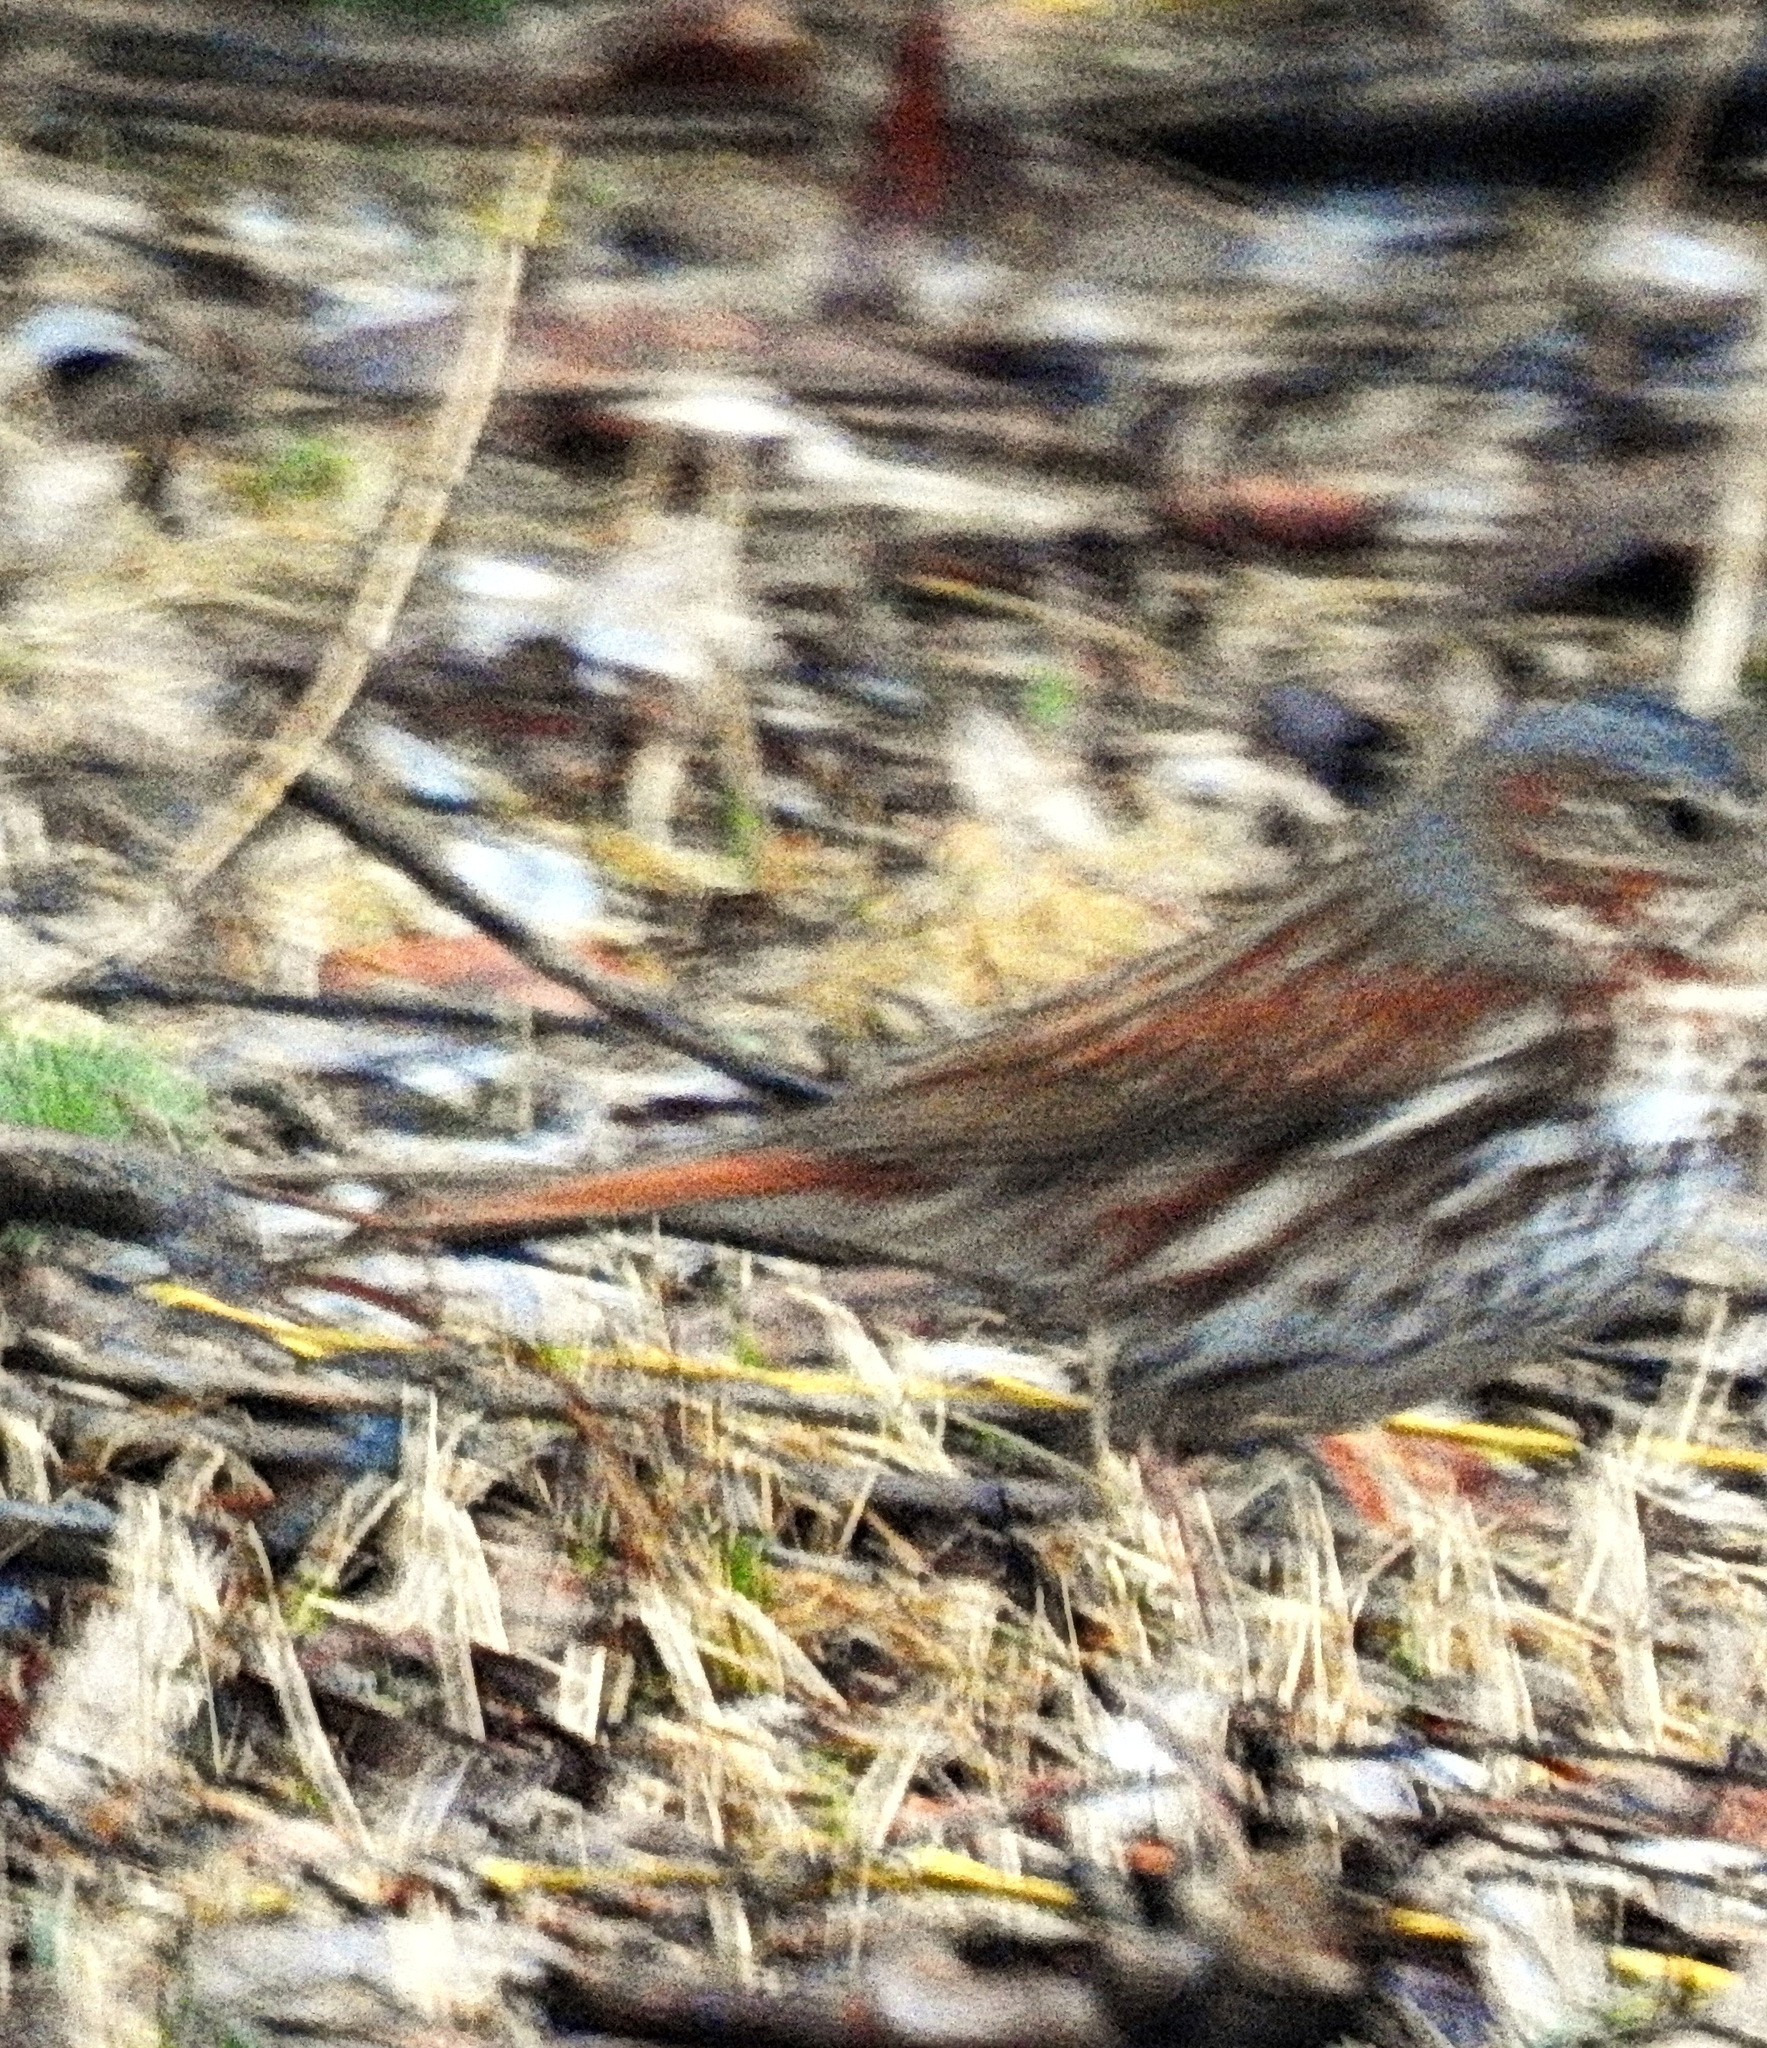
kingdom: Animalia
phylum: Chordata
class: Aves
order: Passeriformes
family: Passerellidae
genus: Passerella
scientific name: Passerella iliaca
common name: Fox sparrow
